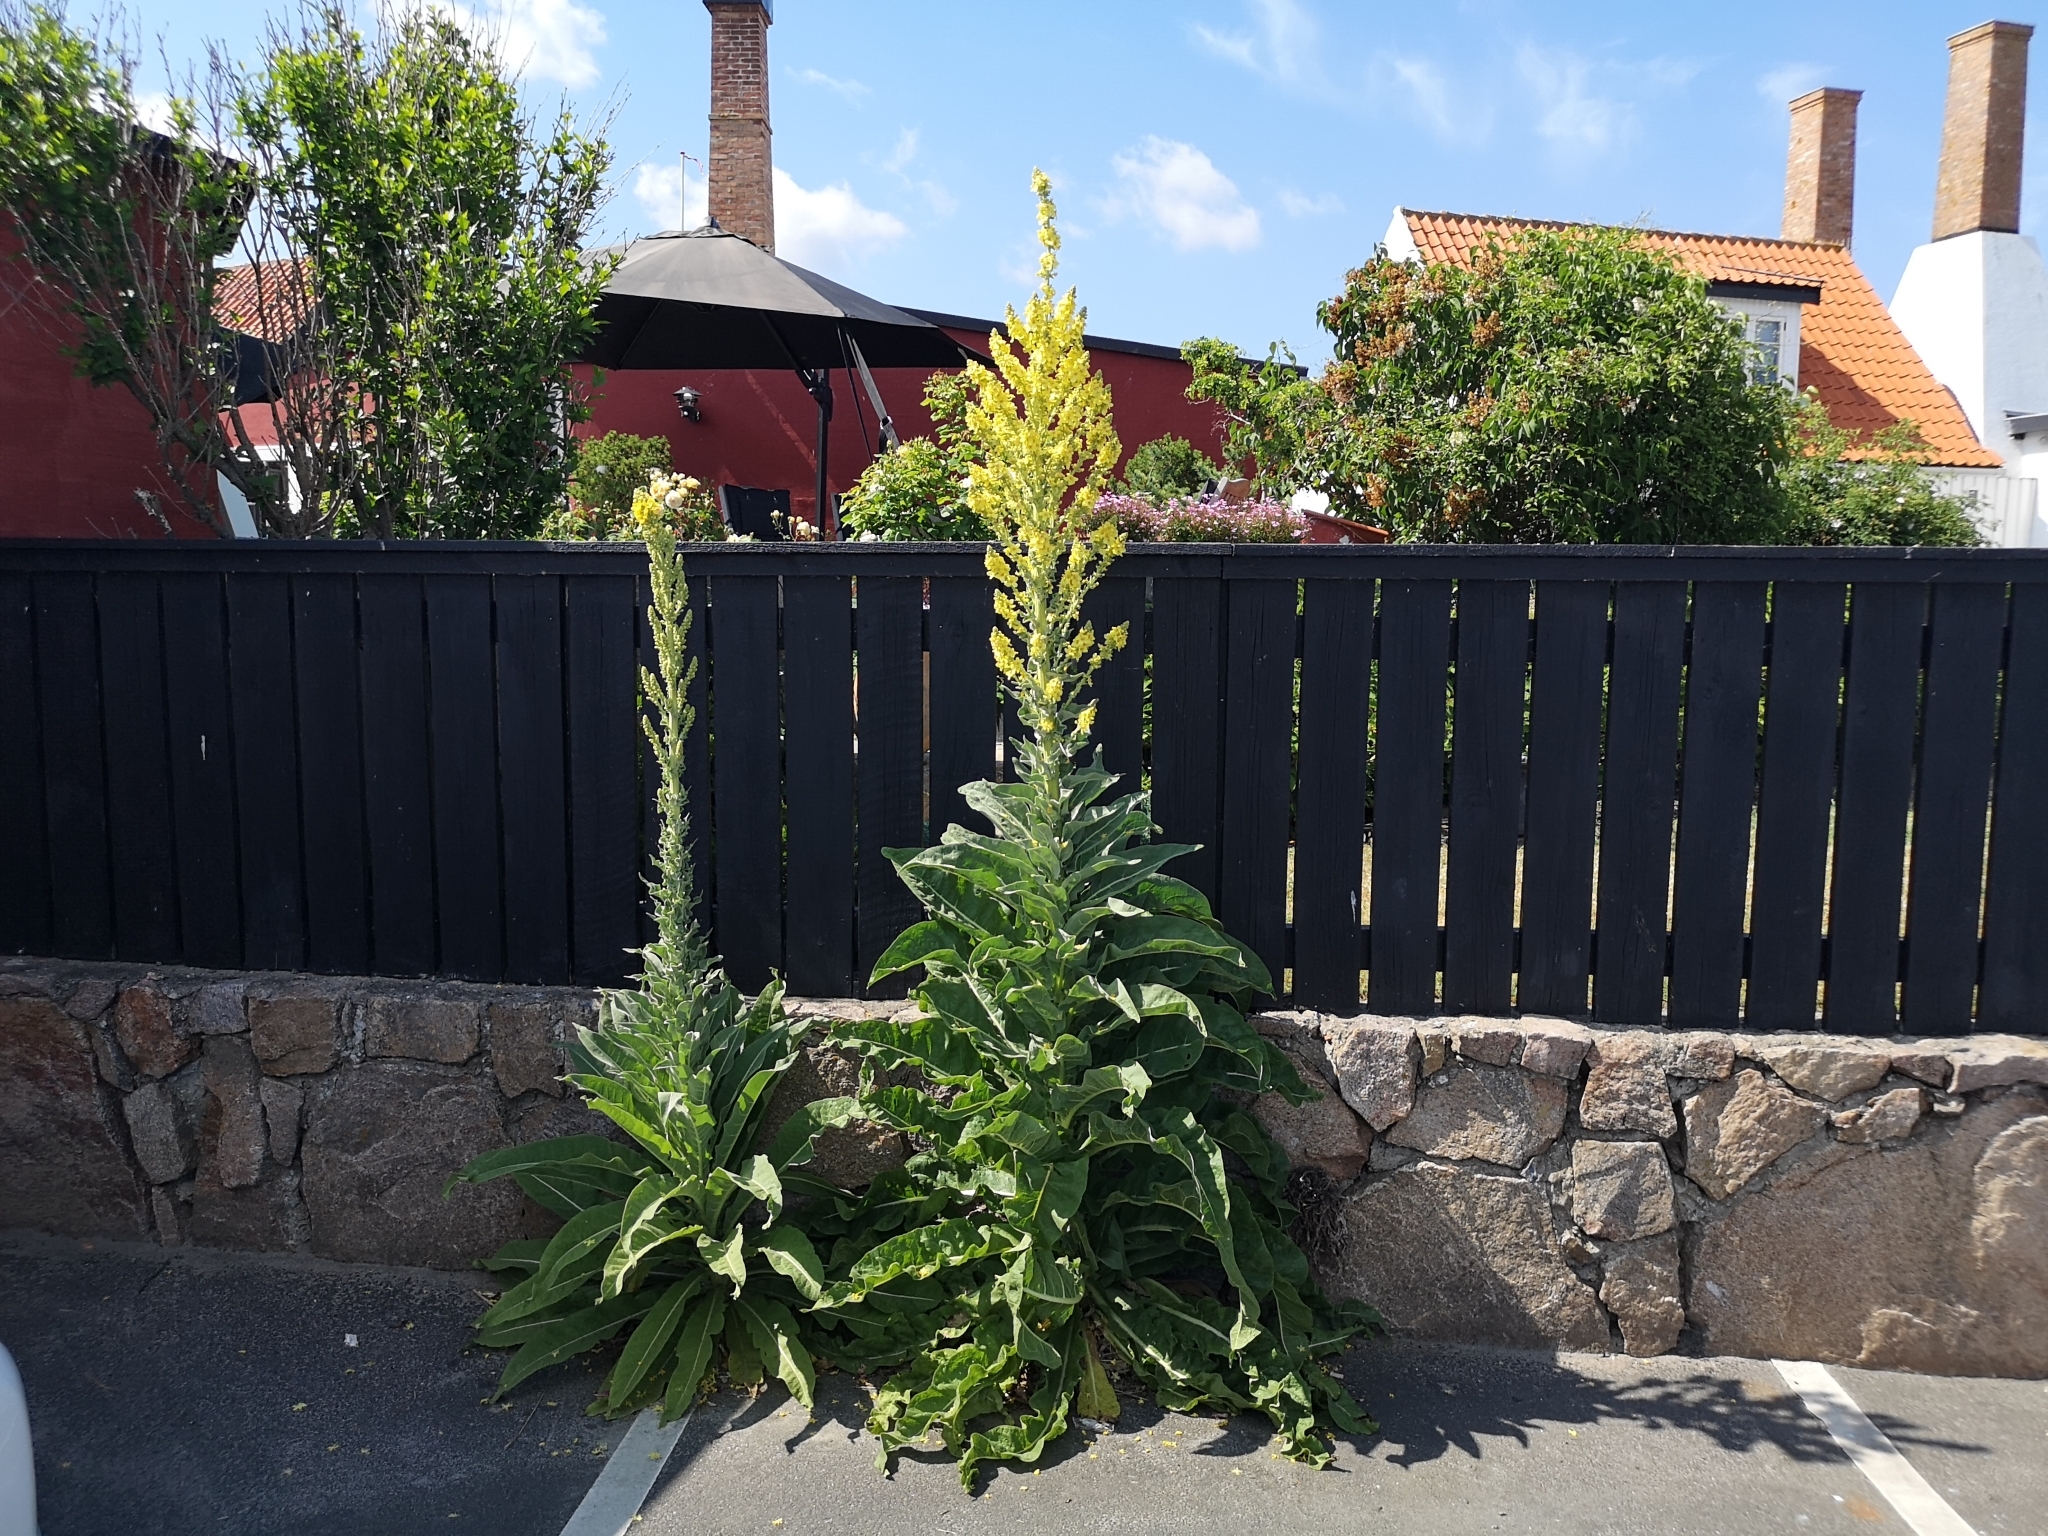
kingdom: Plantae
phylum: Tracheophyta
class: Magnoliopsida
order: Lamiales
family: Scrophulariaceae
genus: Verbascum
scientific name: Verbascum speciosum
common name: Hungarian mullein
